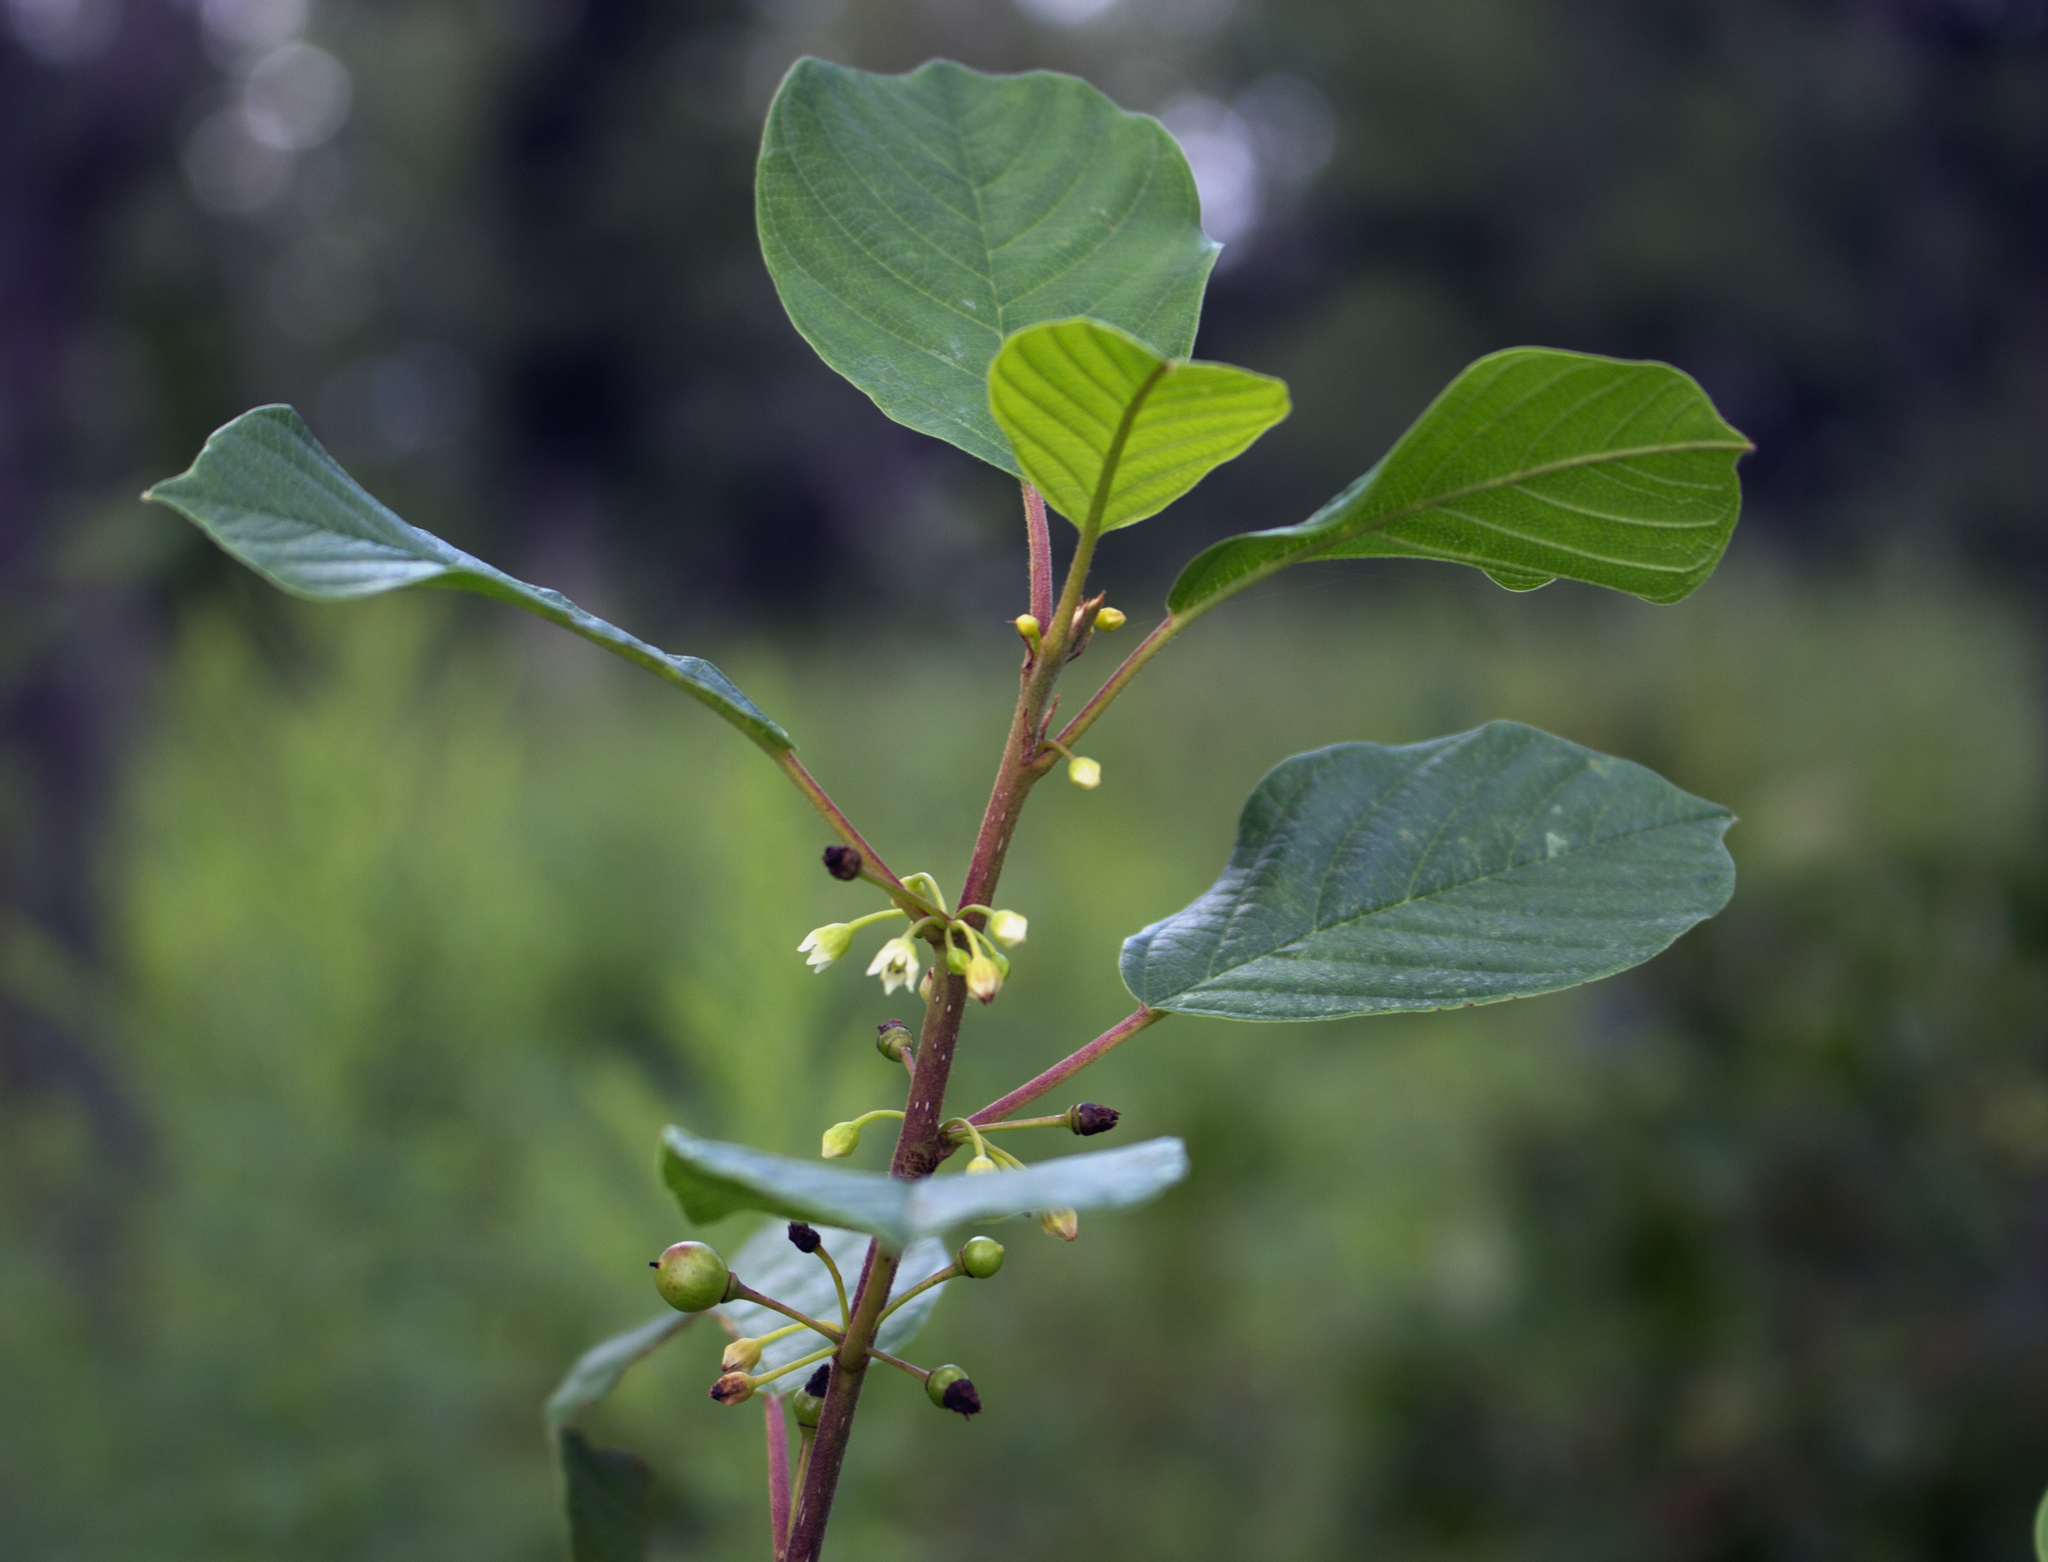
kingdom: Plantae
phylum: Tracheophyta
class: Magnoliopsida
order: Rosales
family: Rhamnaceae
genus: Frangula
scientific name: Frangula alnus
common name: Alder buckthorn
